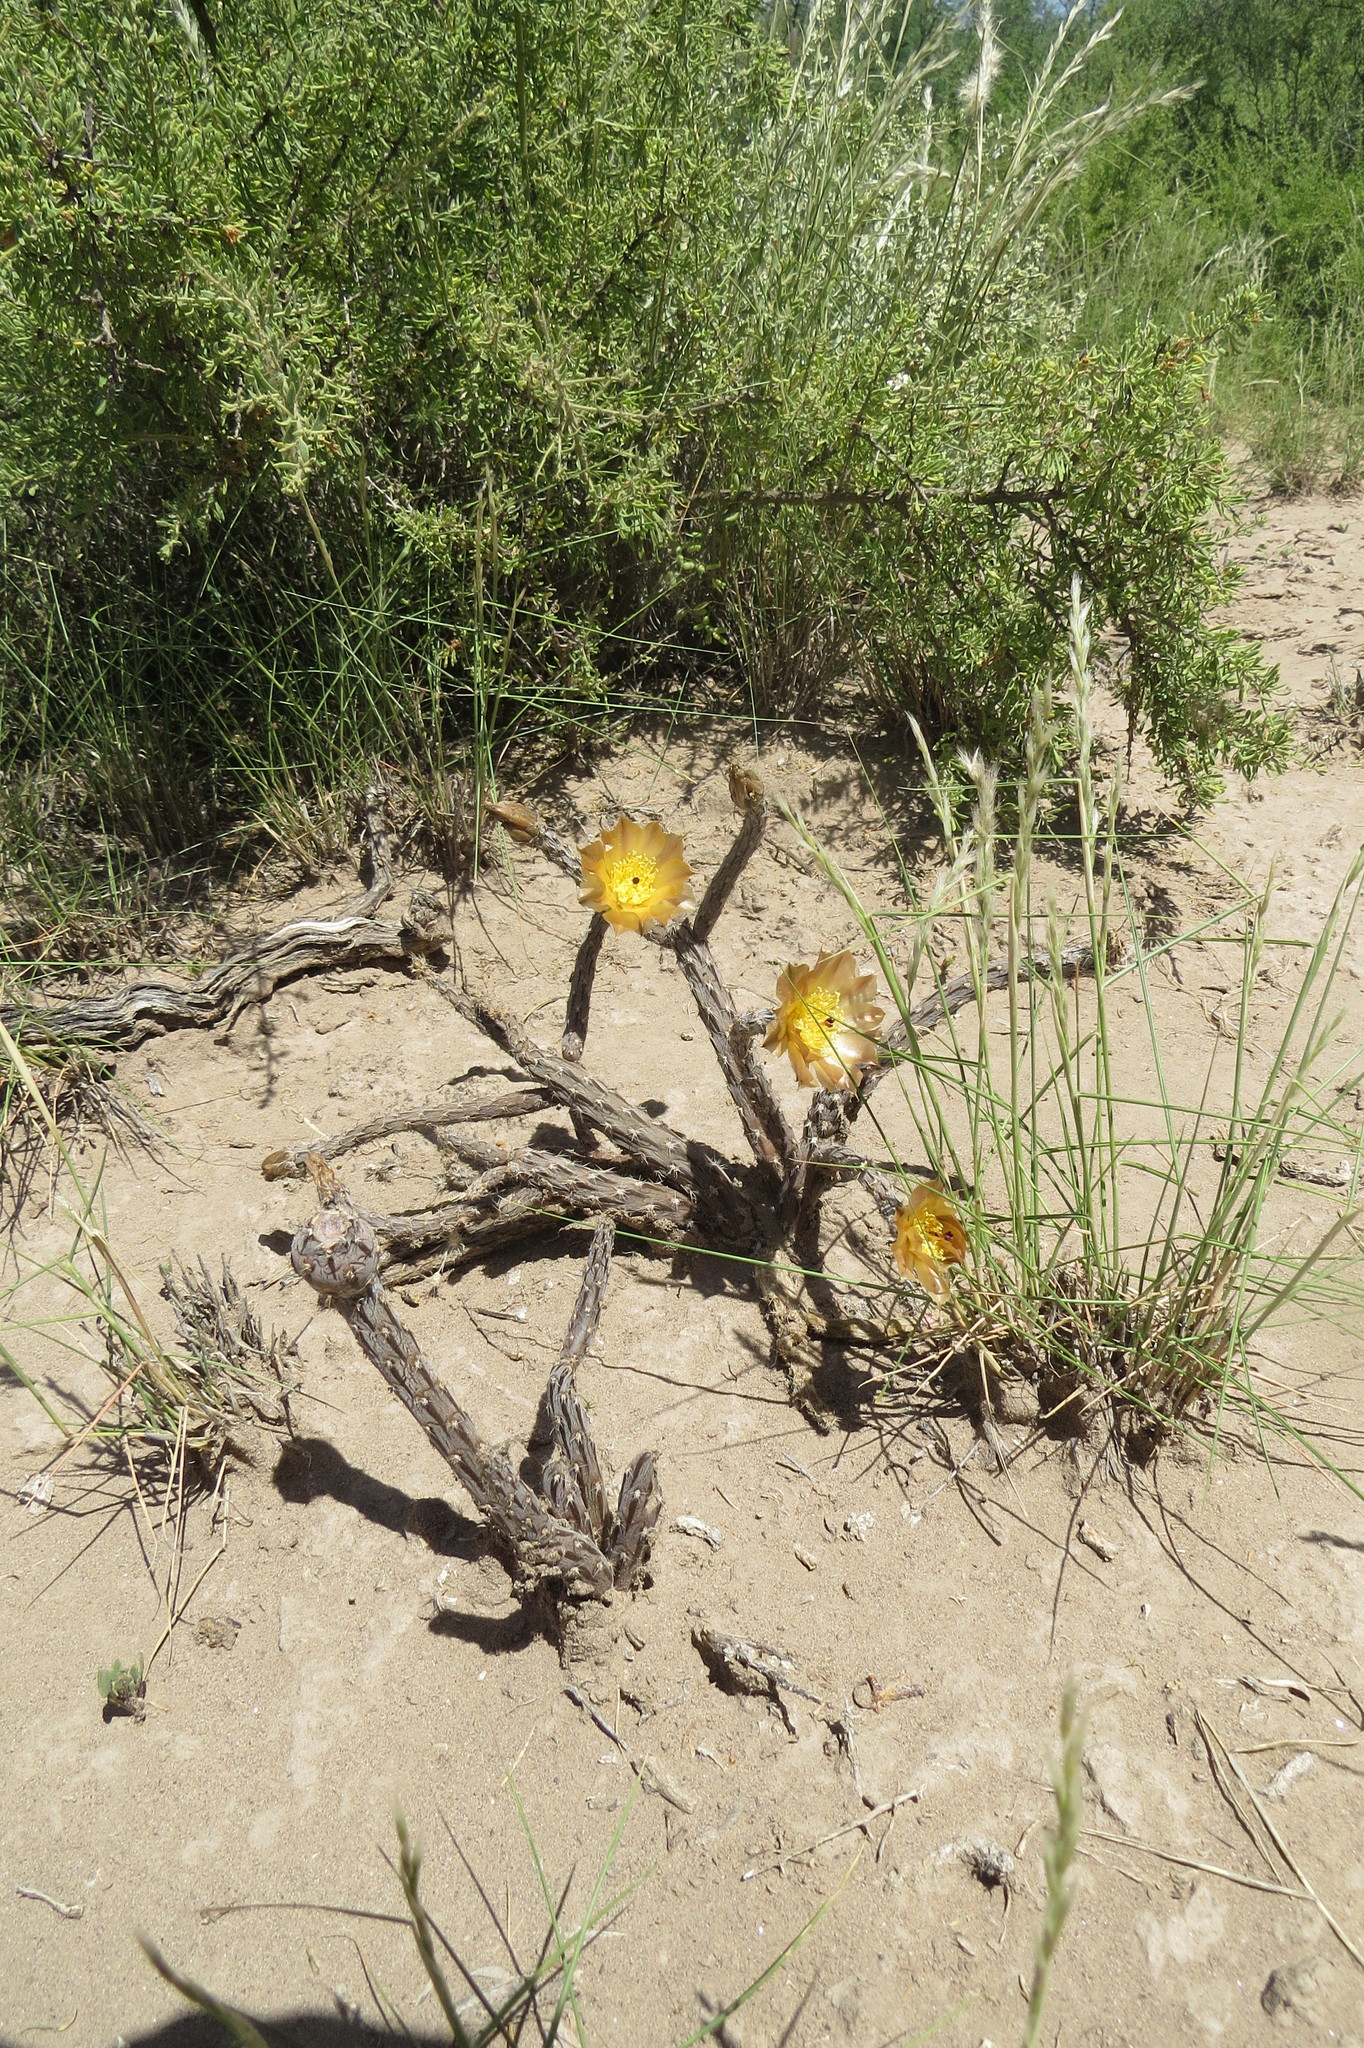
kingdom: Plantae
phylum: Tracheophyta
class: Magnoliopsida
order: Caryophyllales
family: Cactaceae
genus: Pterocactus
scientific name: Pterocactus tuberosus
